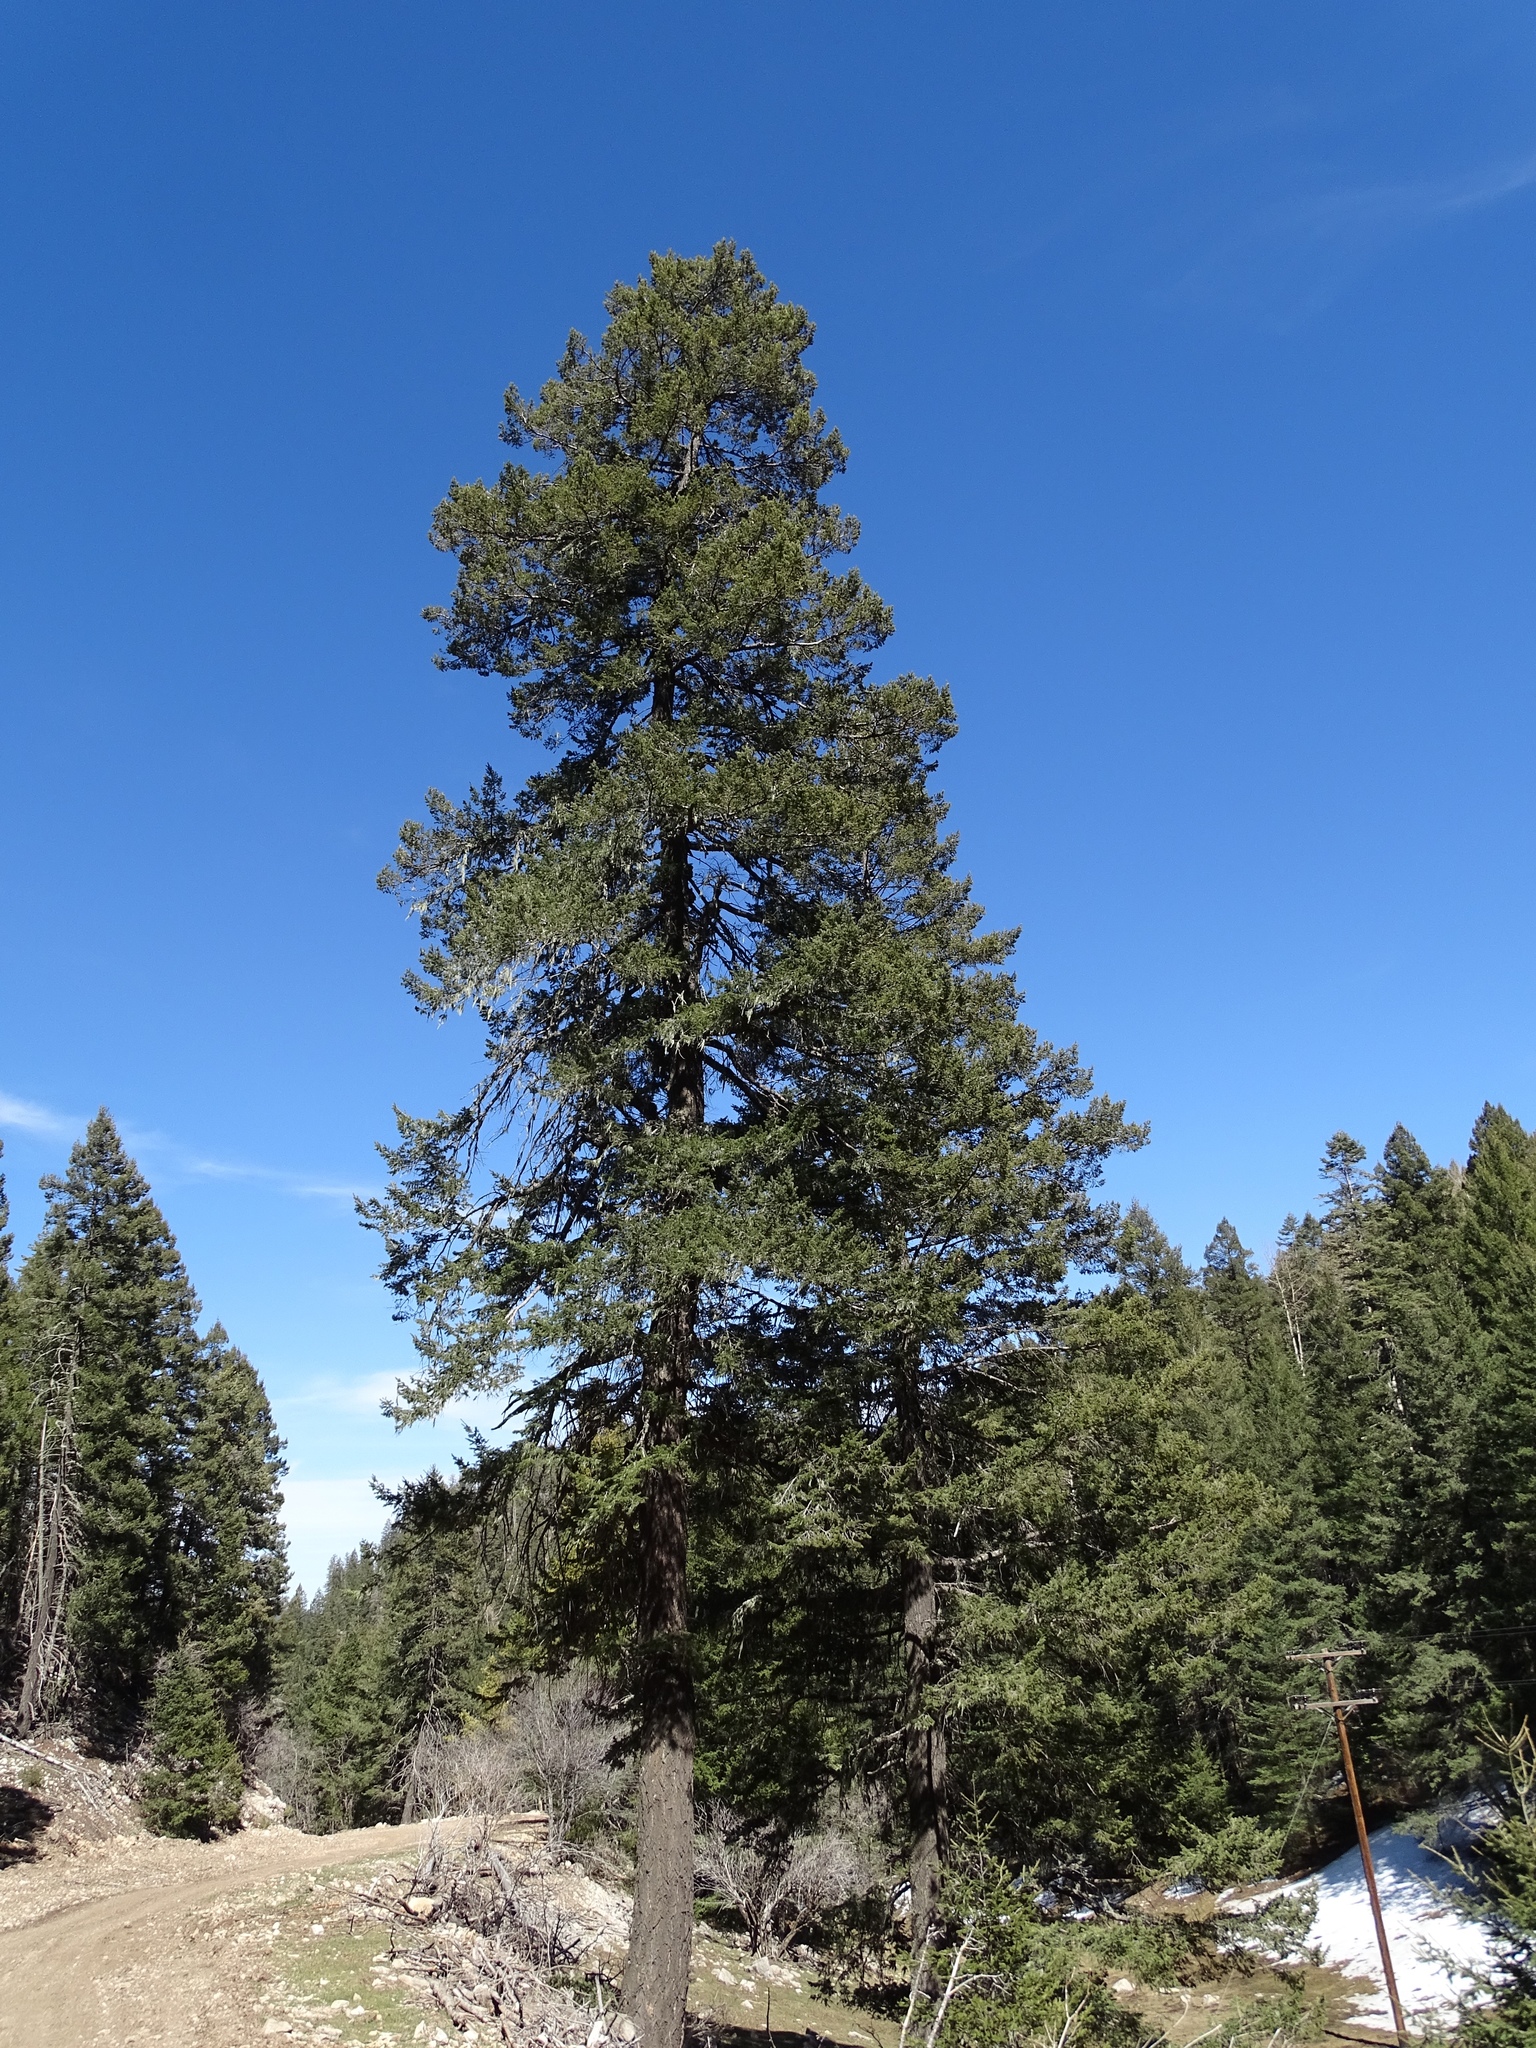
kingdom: Plantae
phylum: Tracheophyta
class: Pinopsida
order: Pinales
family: Pinaceae
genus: Pseudotsuga
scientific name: Pseudotsuga menziesii
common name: Douglas fir
